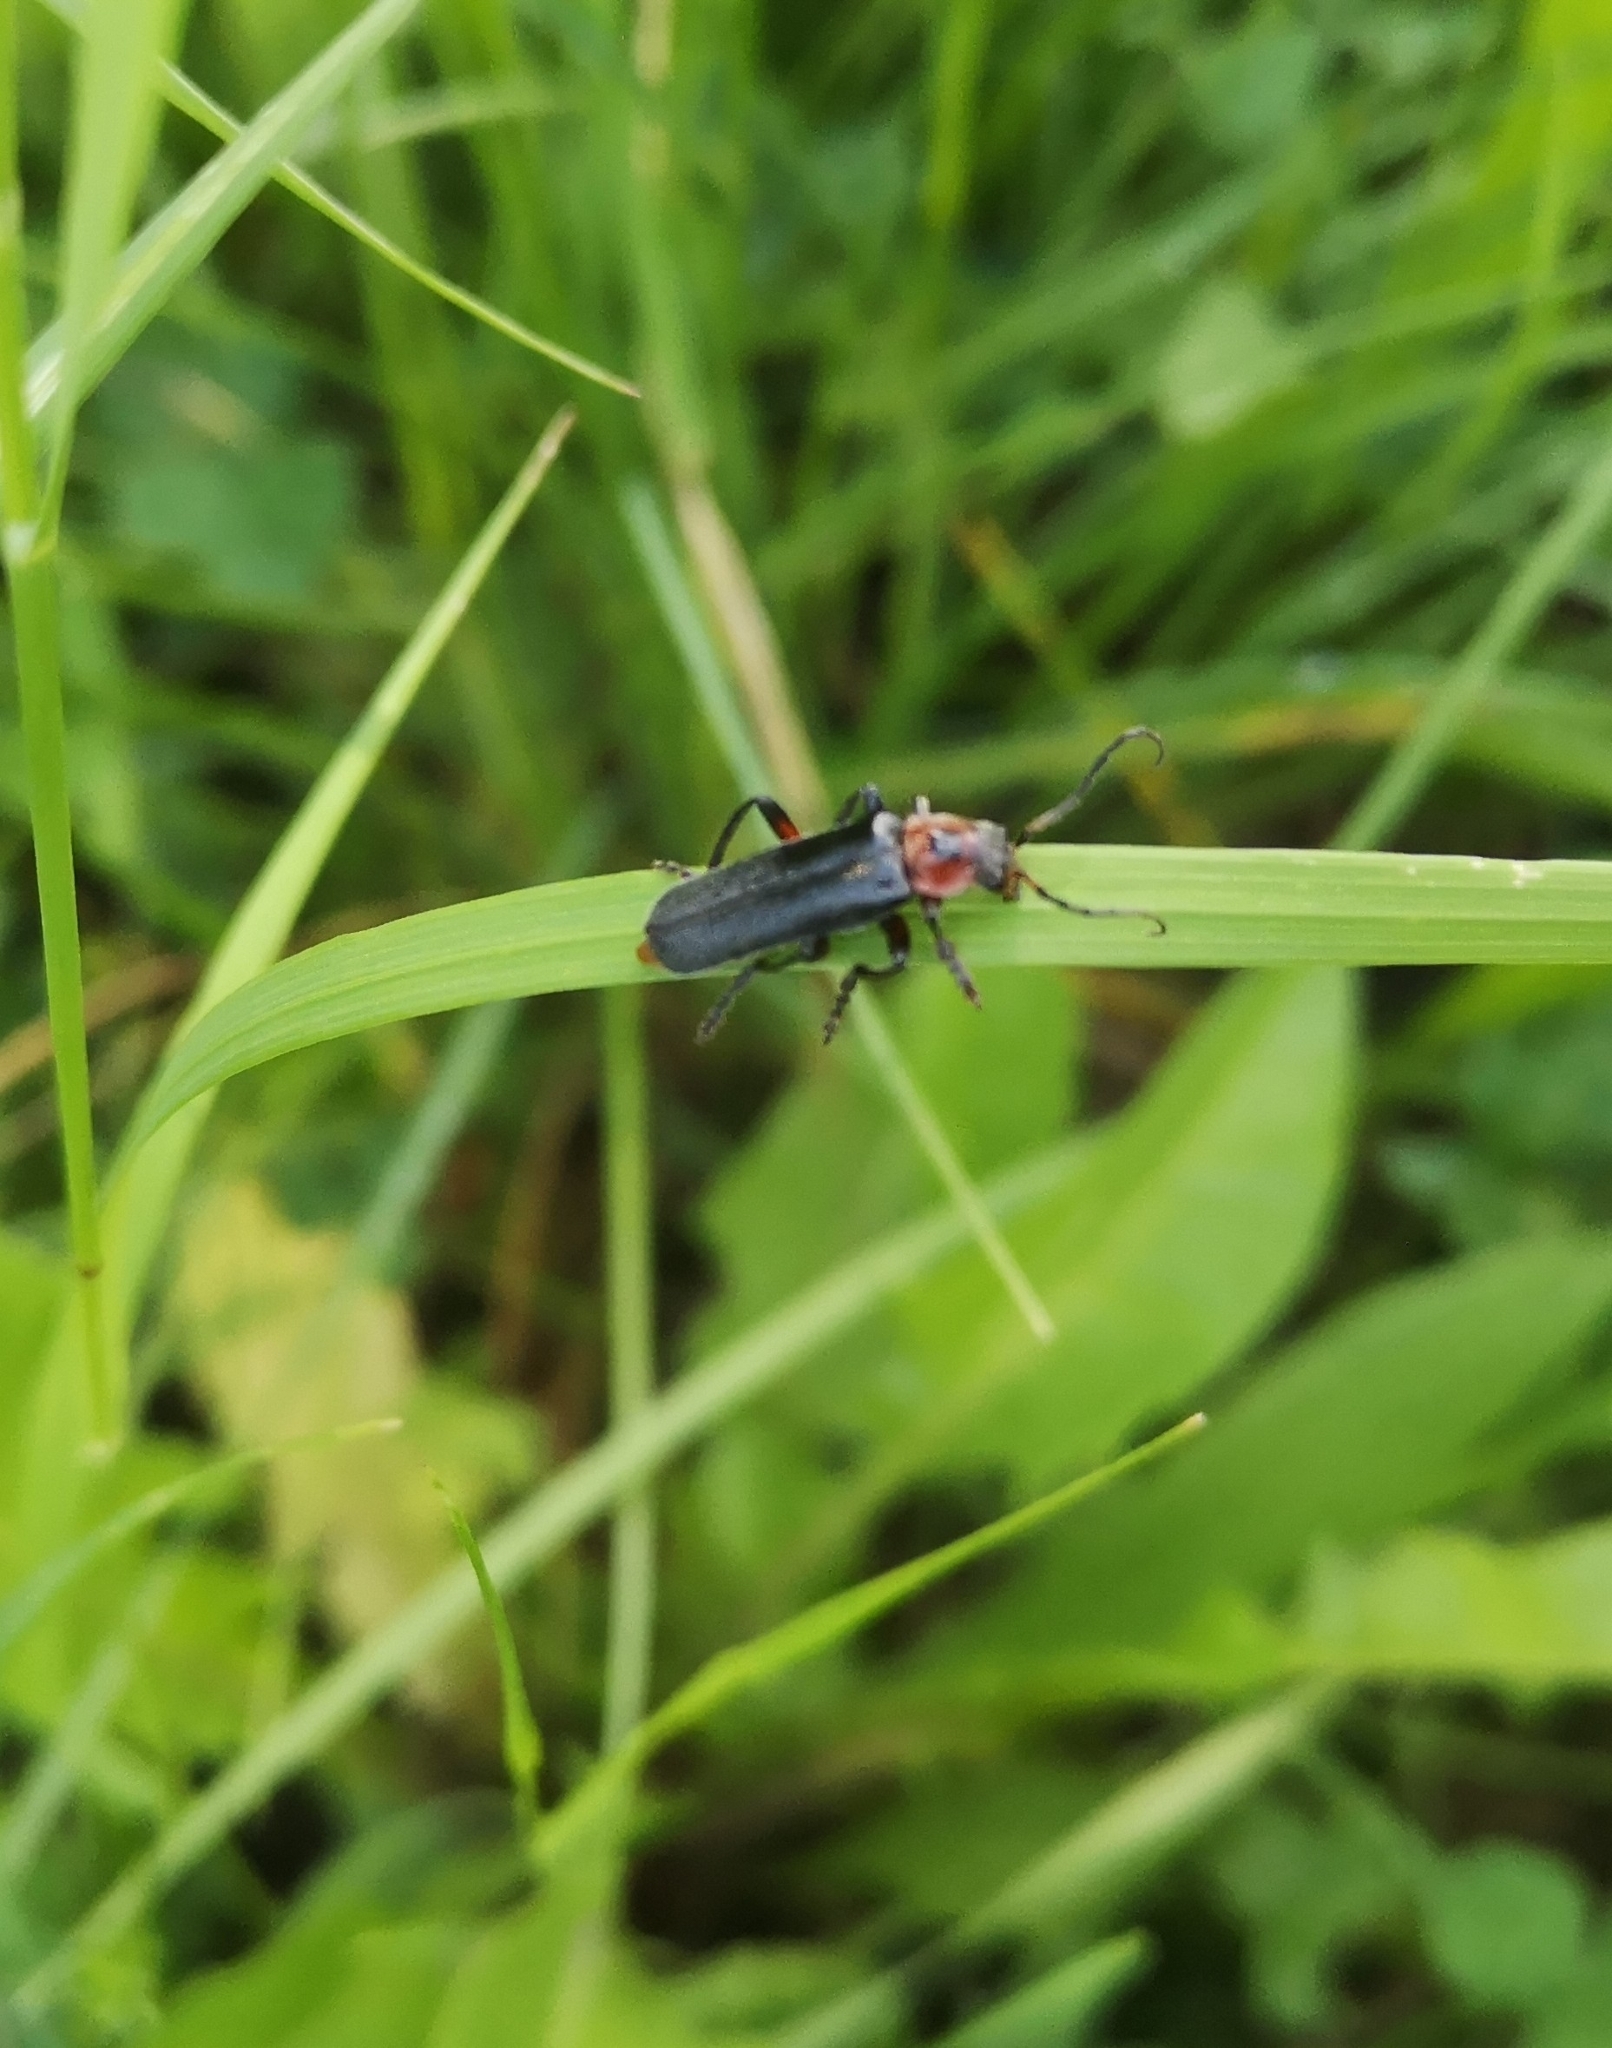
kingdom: Animalia
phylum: Arthropoda
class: Insecta
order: Coleoptera
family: Cantharidae
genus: Cantharis
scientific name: Cantharis rustica
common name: Soldier beetle
